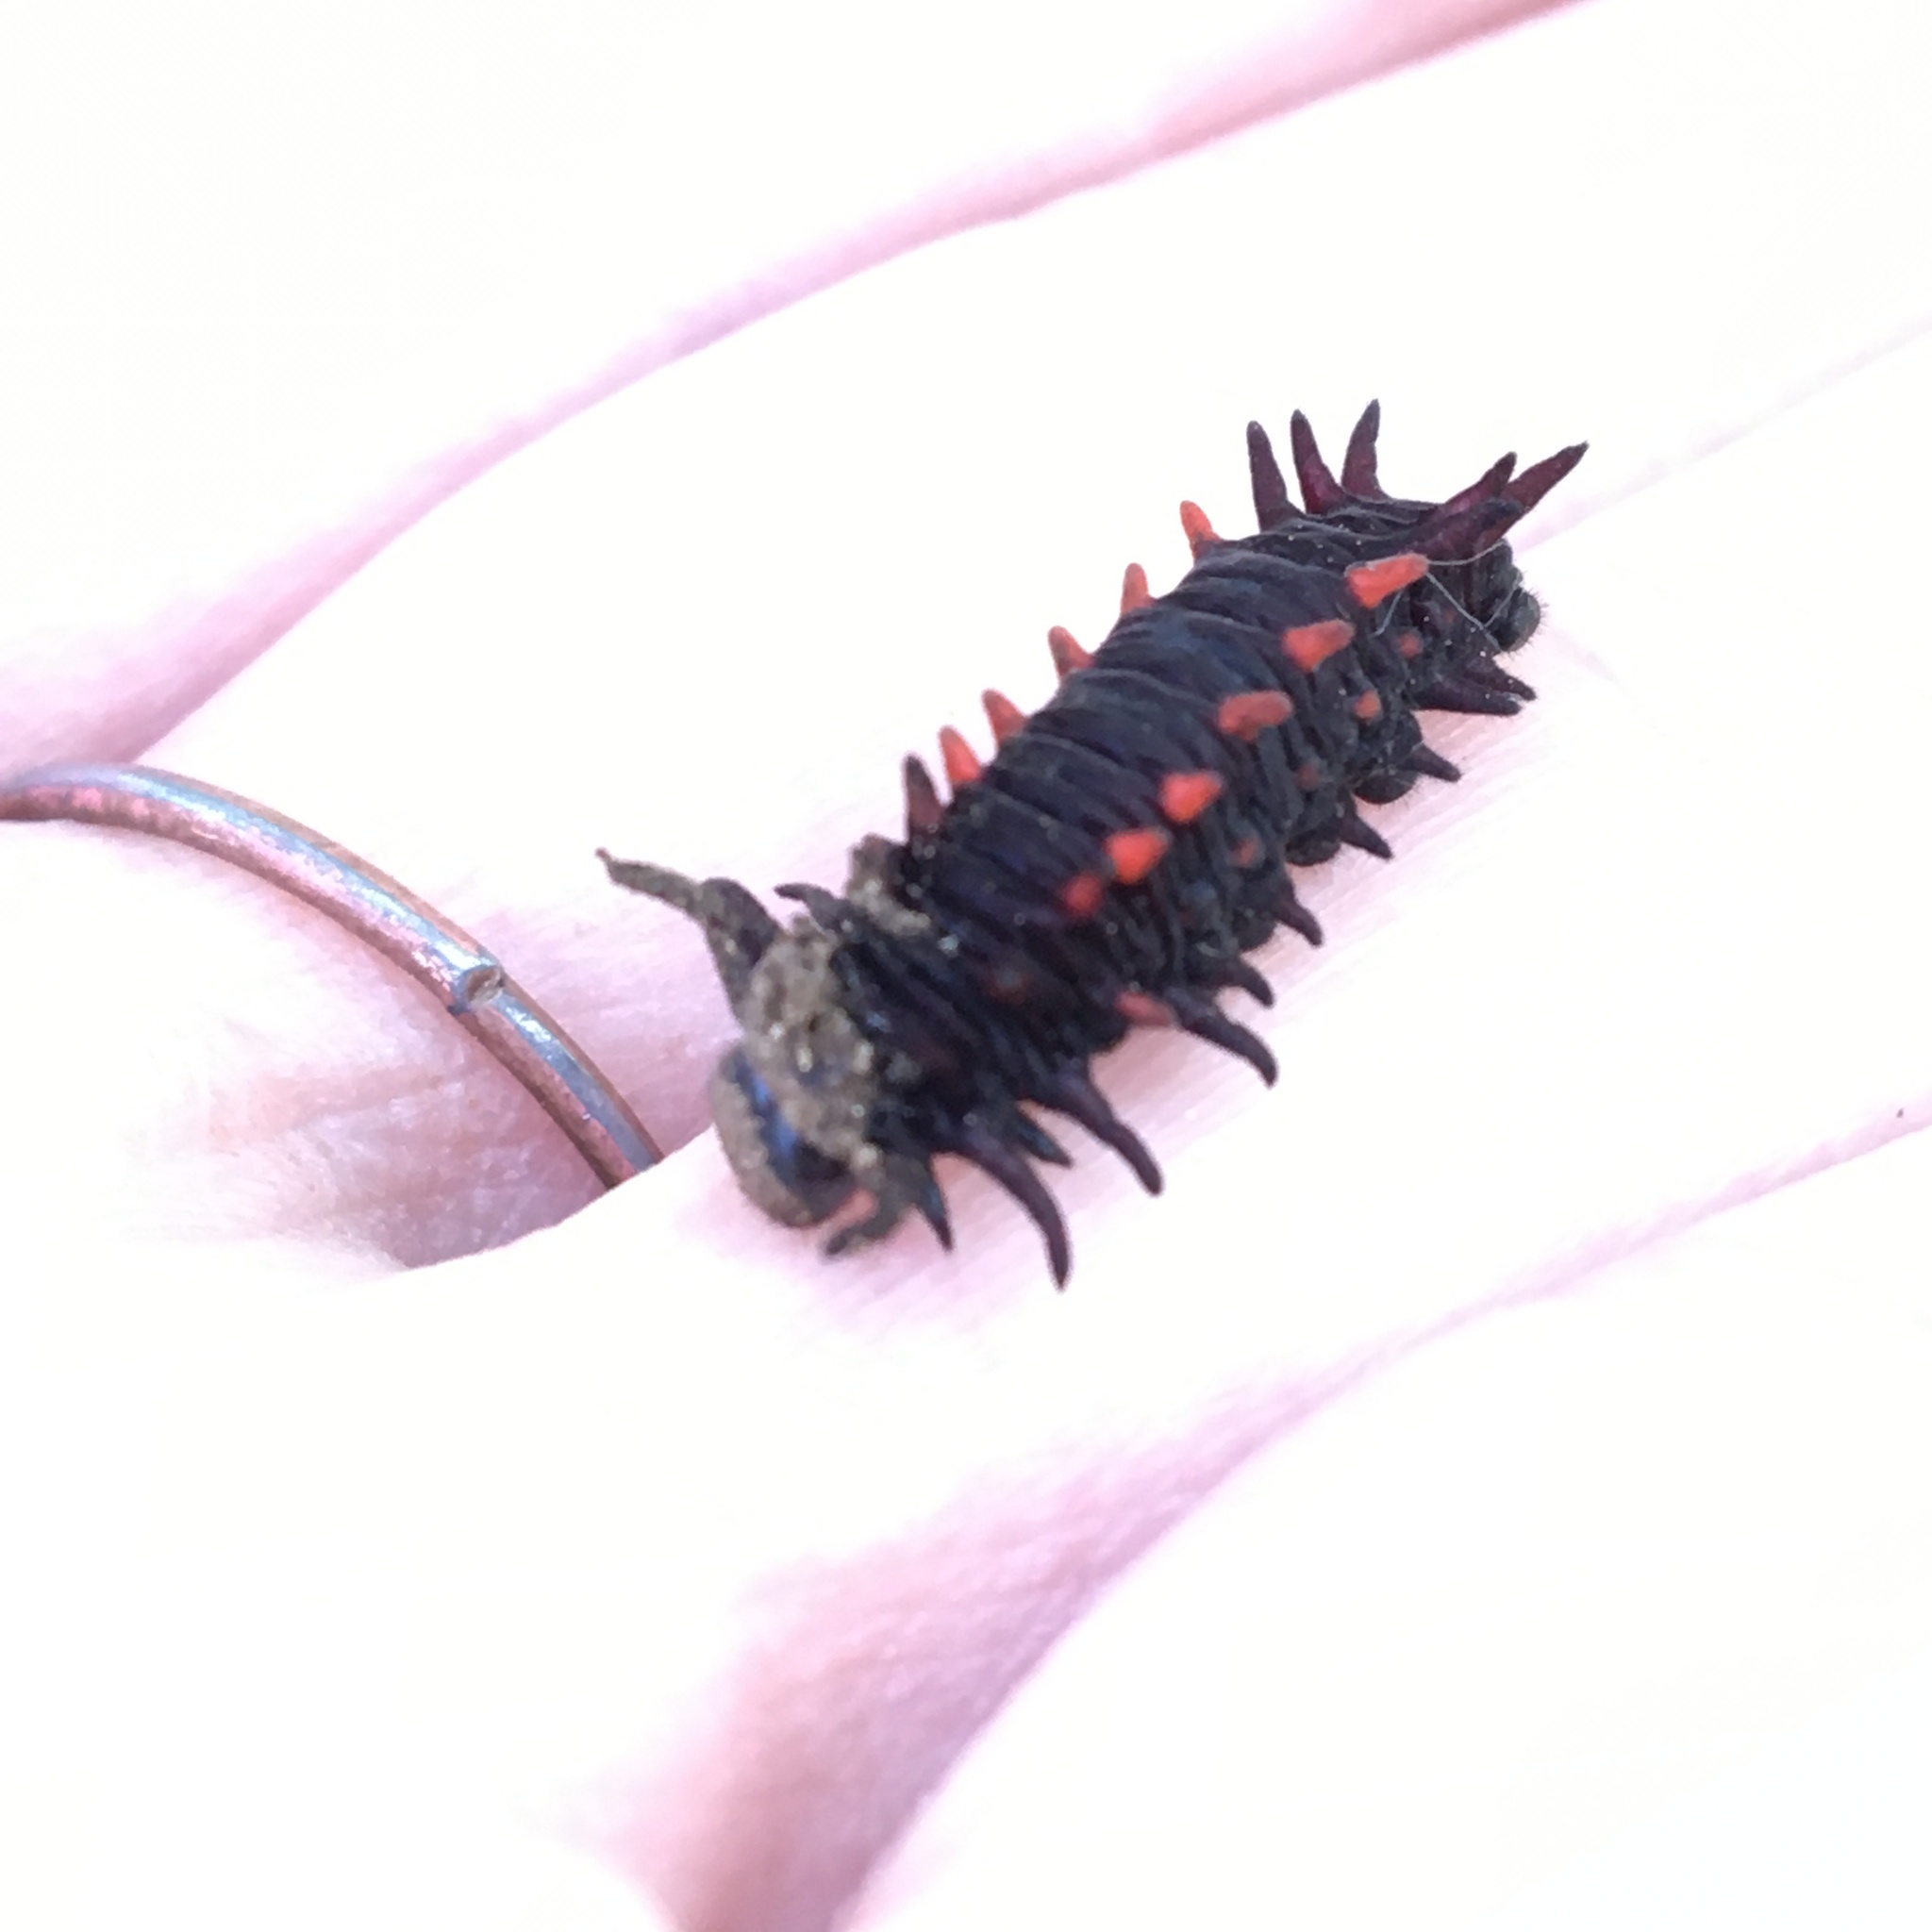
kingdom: Animalia
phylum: Arthropoda
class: Insecta
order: Lepidoptera
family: Papilionidae
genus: Battus
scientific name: Battus philenor
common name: Pipevine swallowtail
